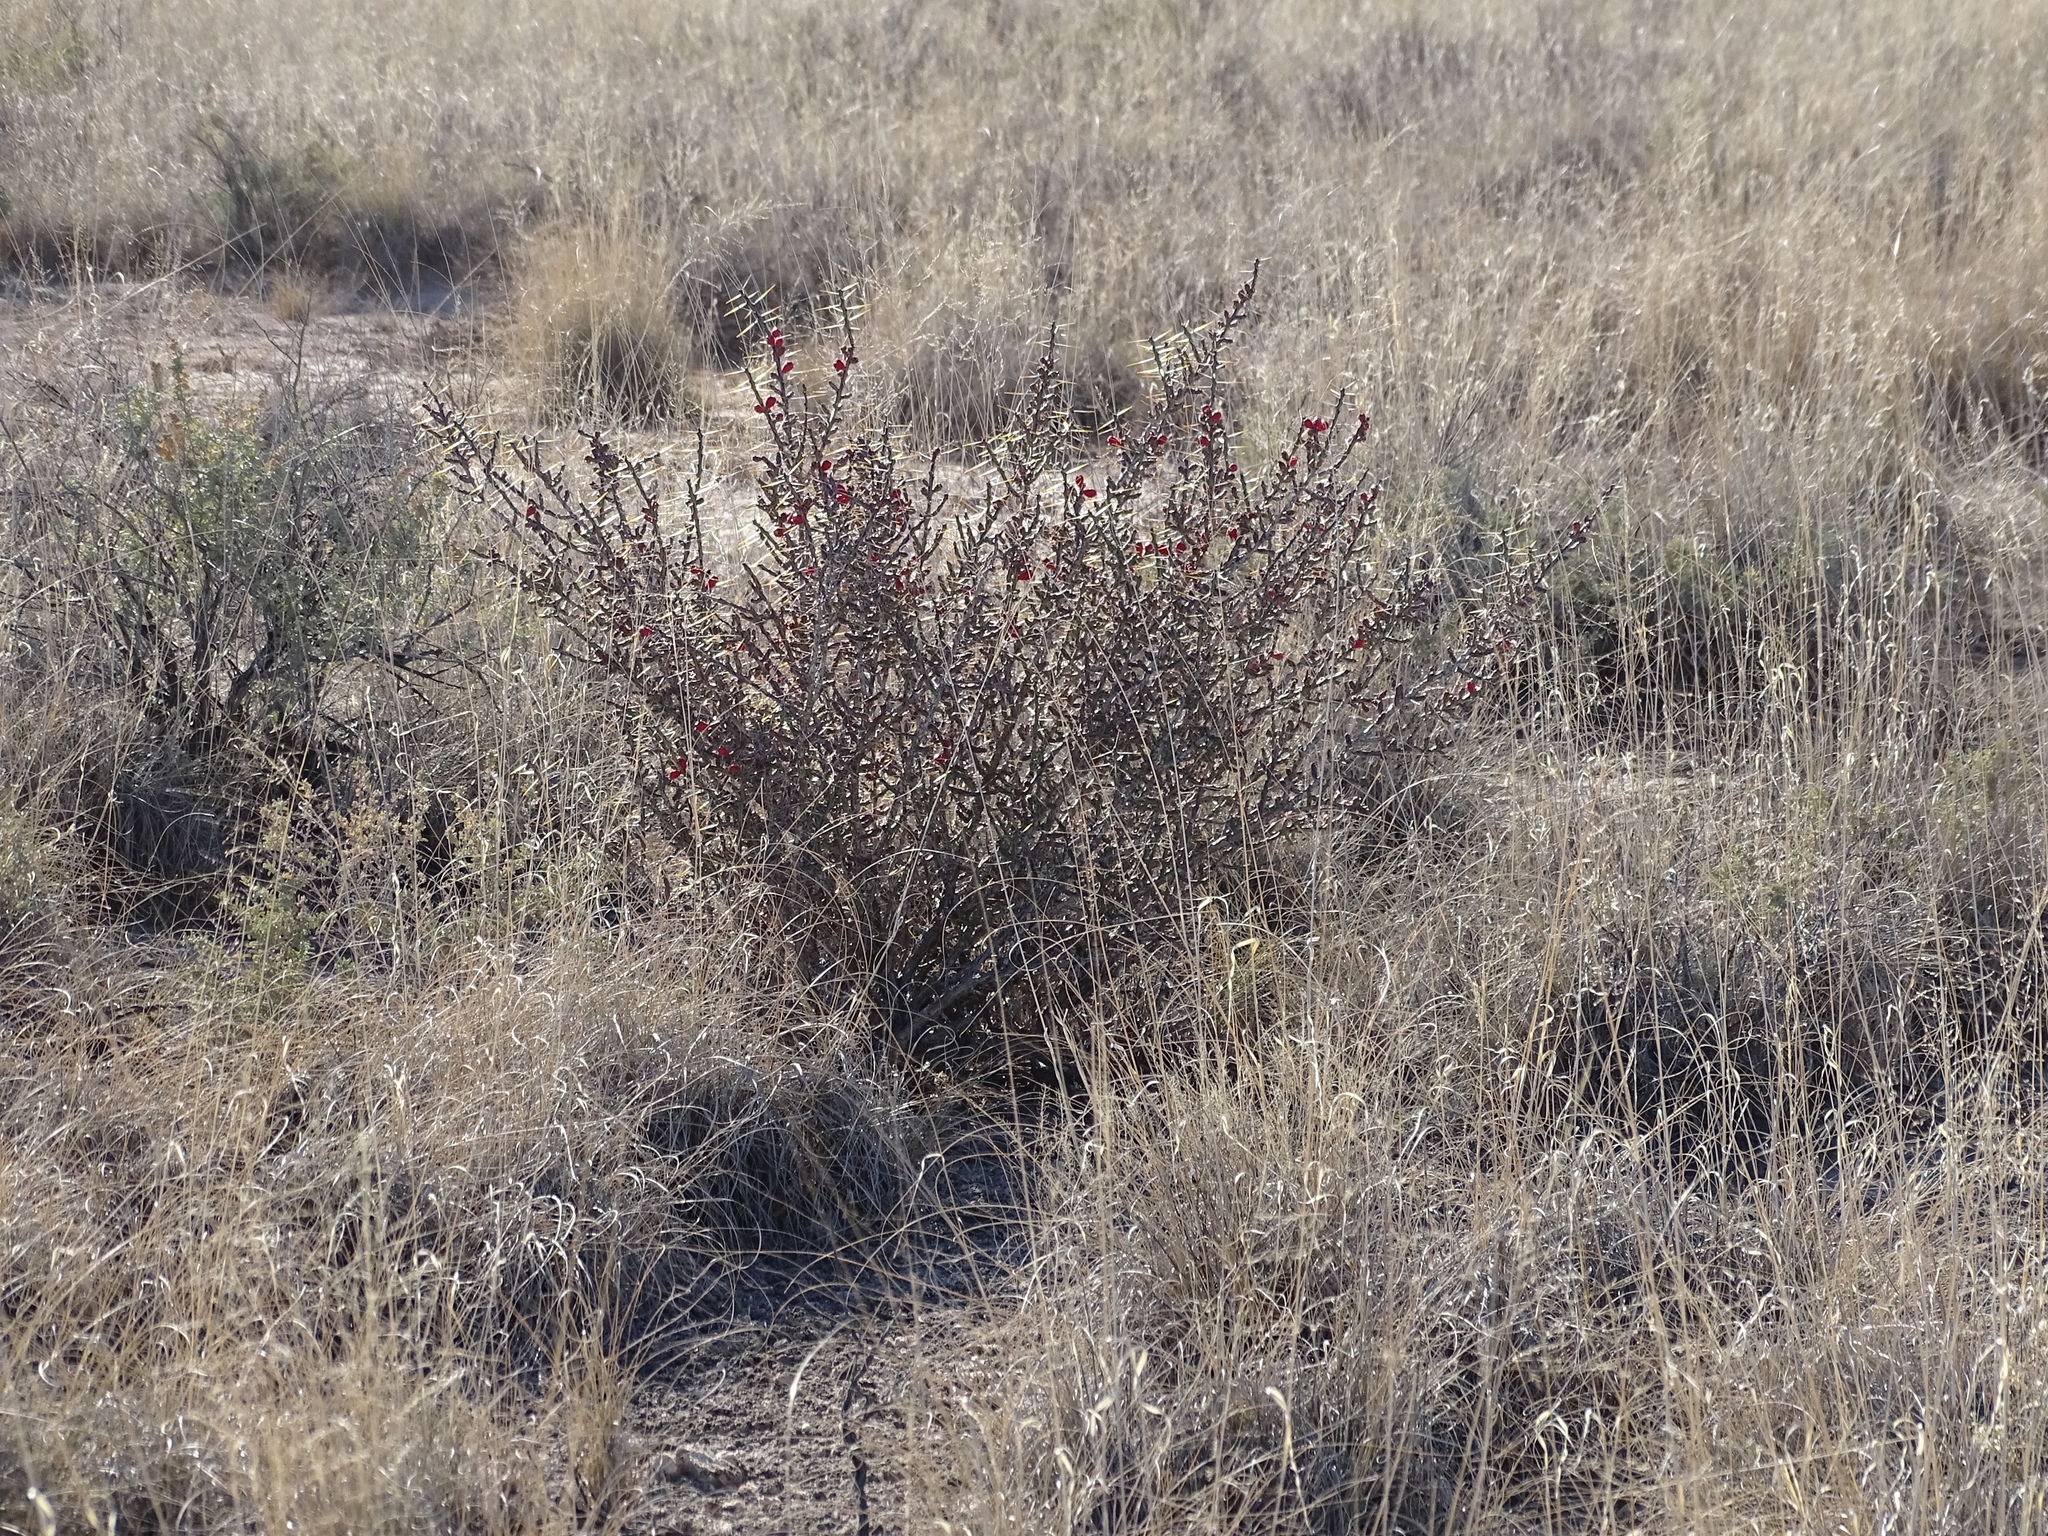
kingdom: Plantae
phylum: Tracheophyta
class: Magnoliopsida
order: Caryophyllales
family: Cactaceae
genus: Cylindropuntia
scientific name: Cylindropuntia leptocaulis
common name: Christmas cactus
